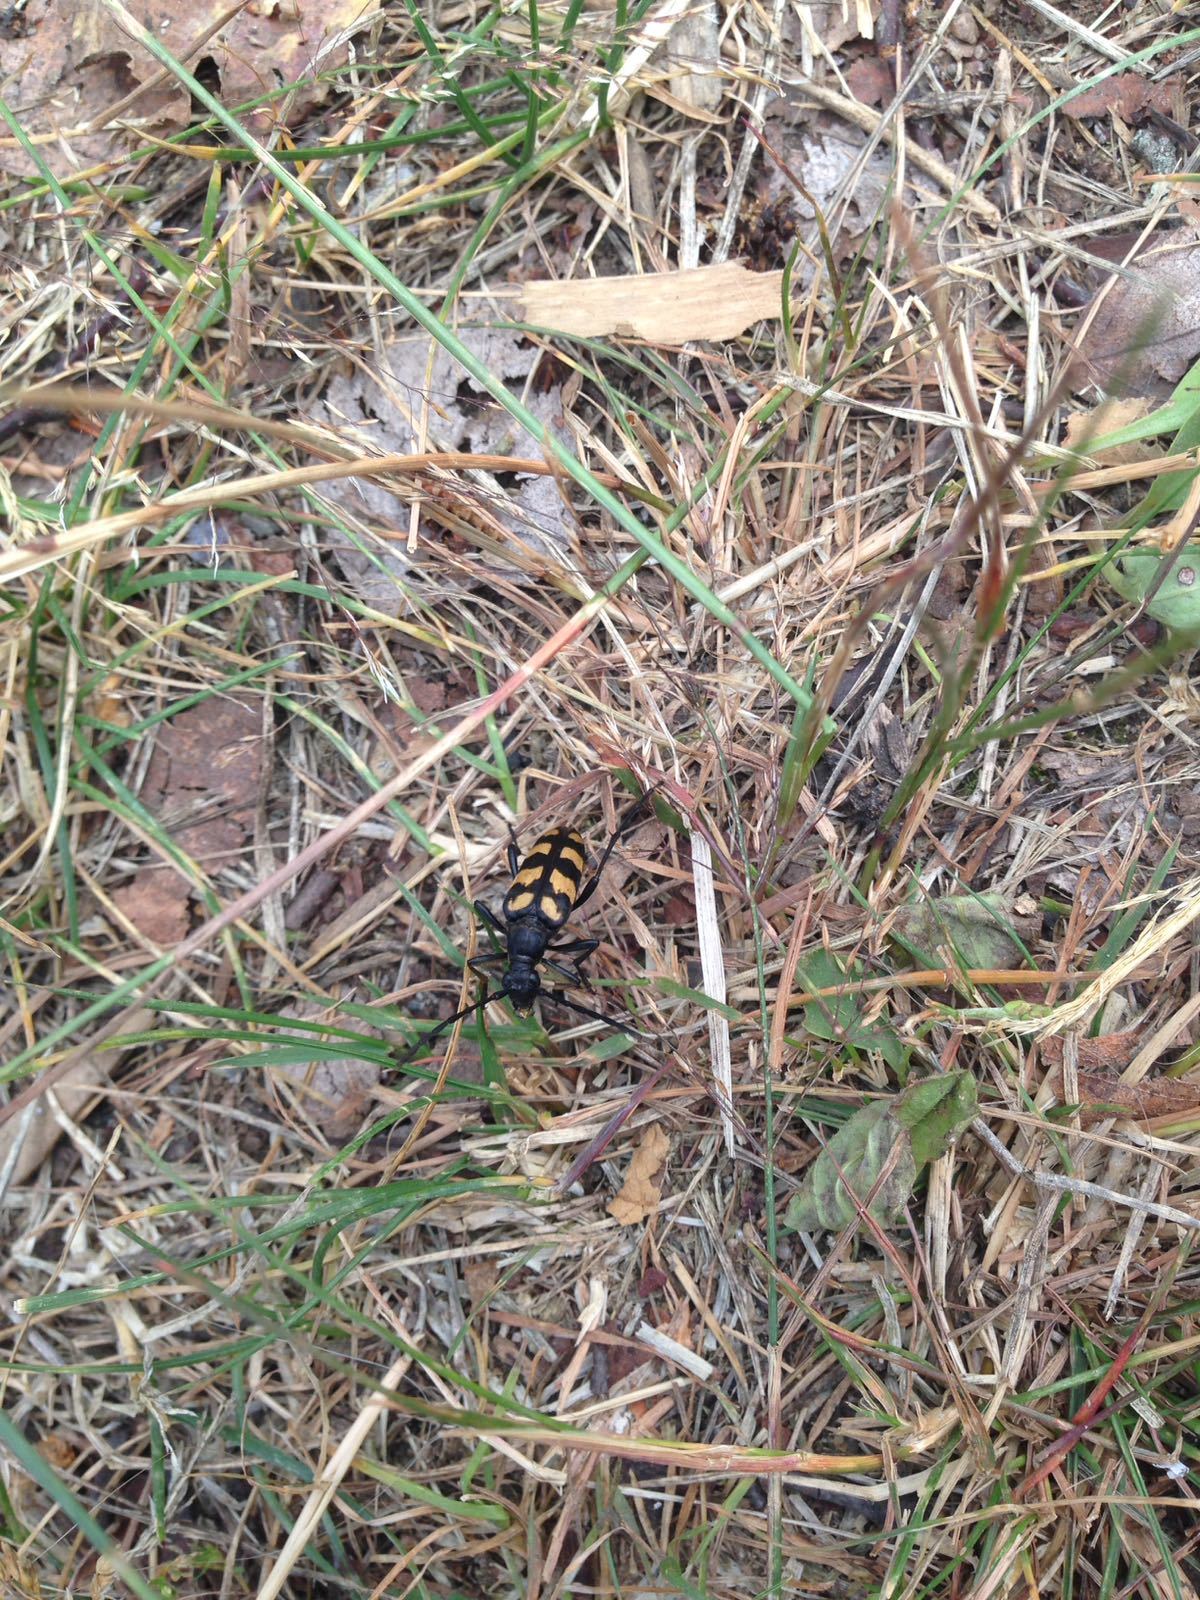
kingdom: Animalia
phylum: Arthropoda
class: Insecta
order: Coleoptera
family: Cerambycidae
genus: Leptura
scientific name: Leptura quadrifasciata
